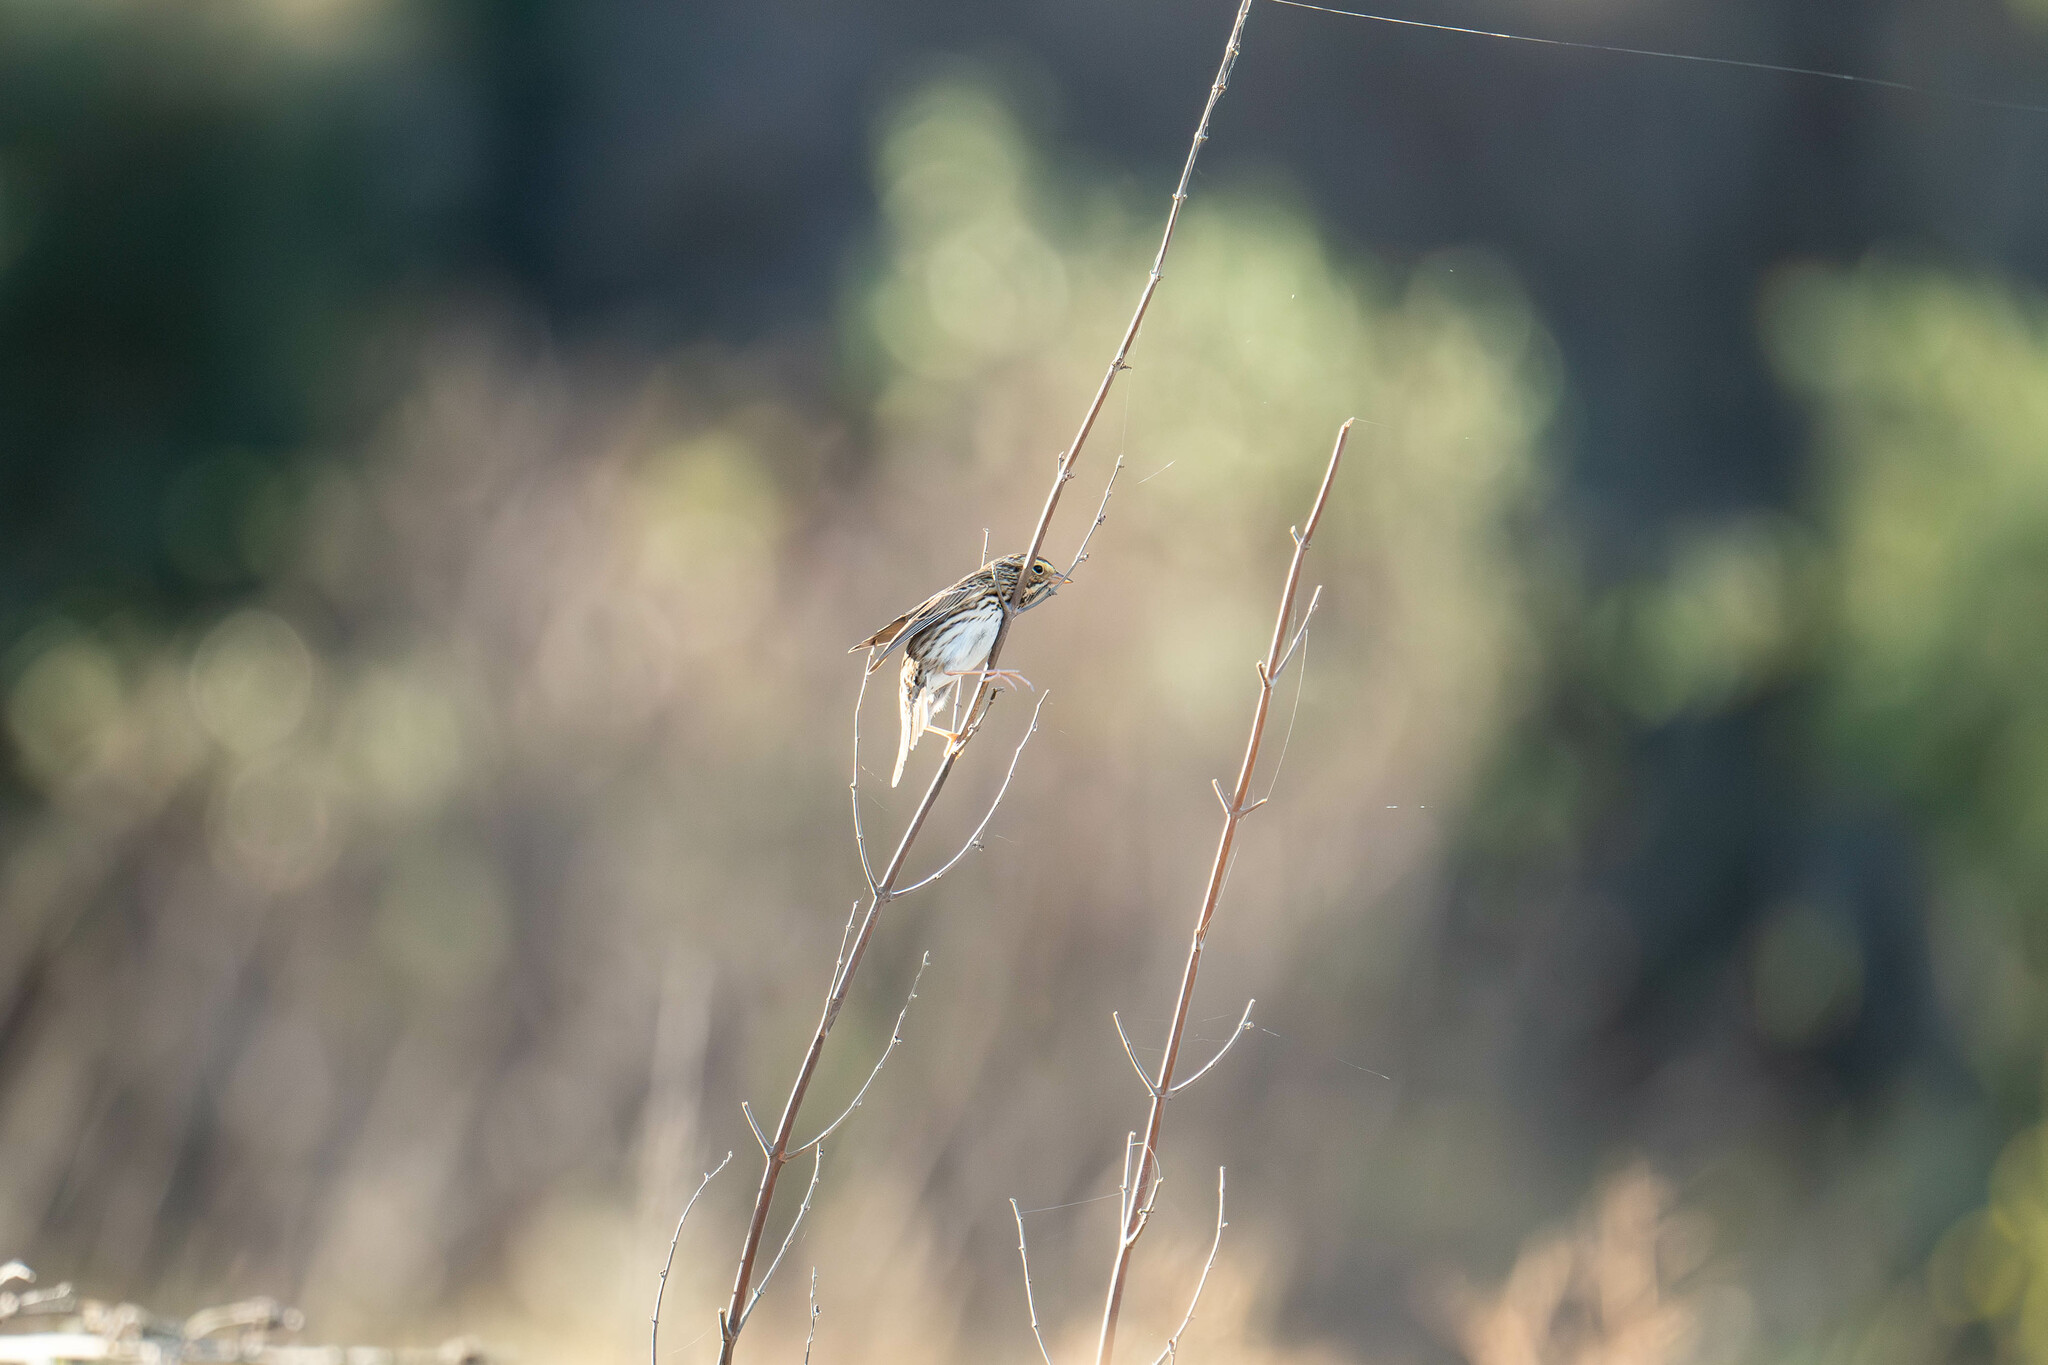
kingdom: Animalia
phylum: Chordata
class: Aves
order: Passeriformes
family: Passerellidae
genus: Passerculus
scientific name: Passerculus sandwichensis
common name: Savannah sparrow
